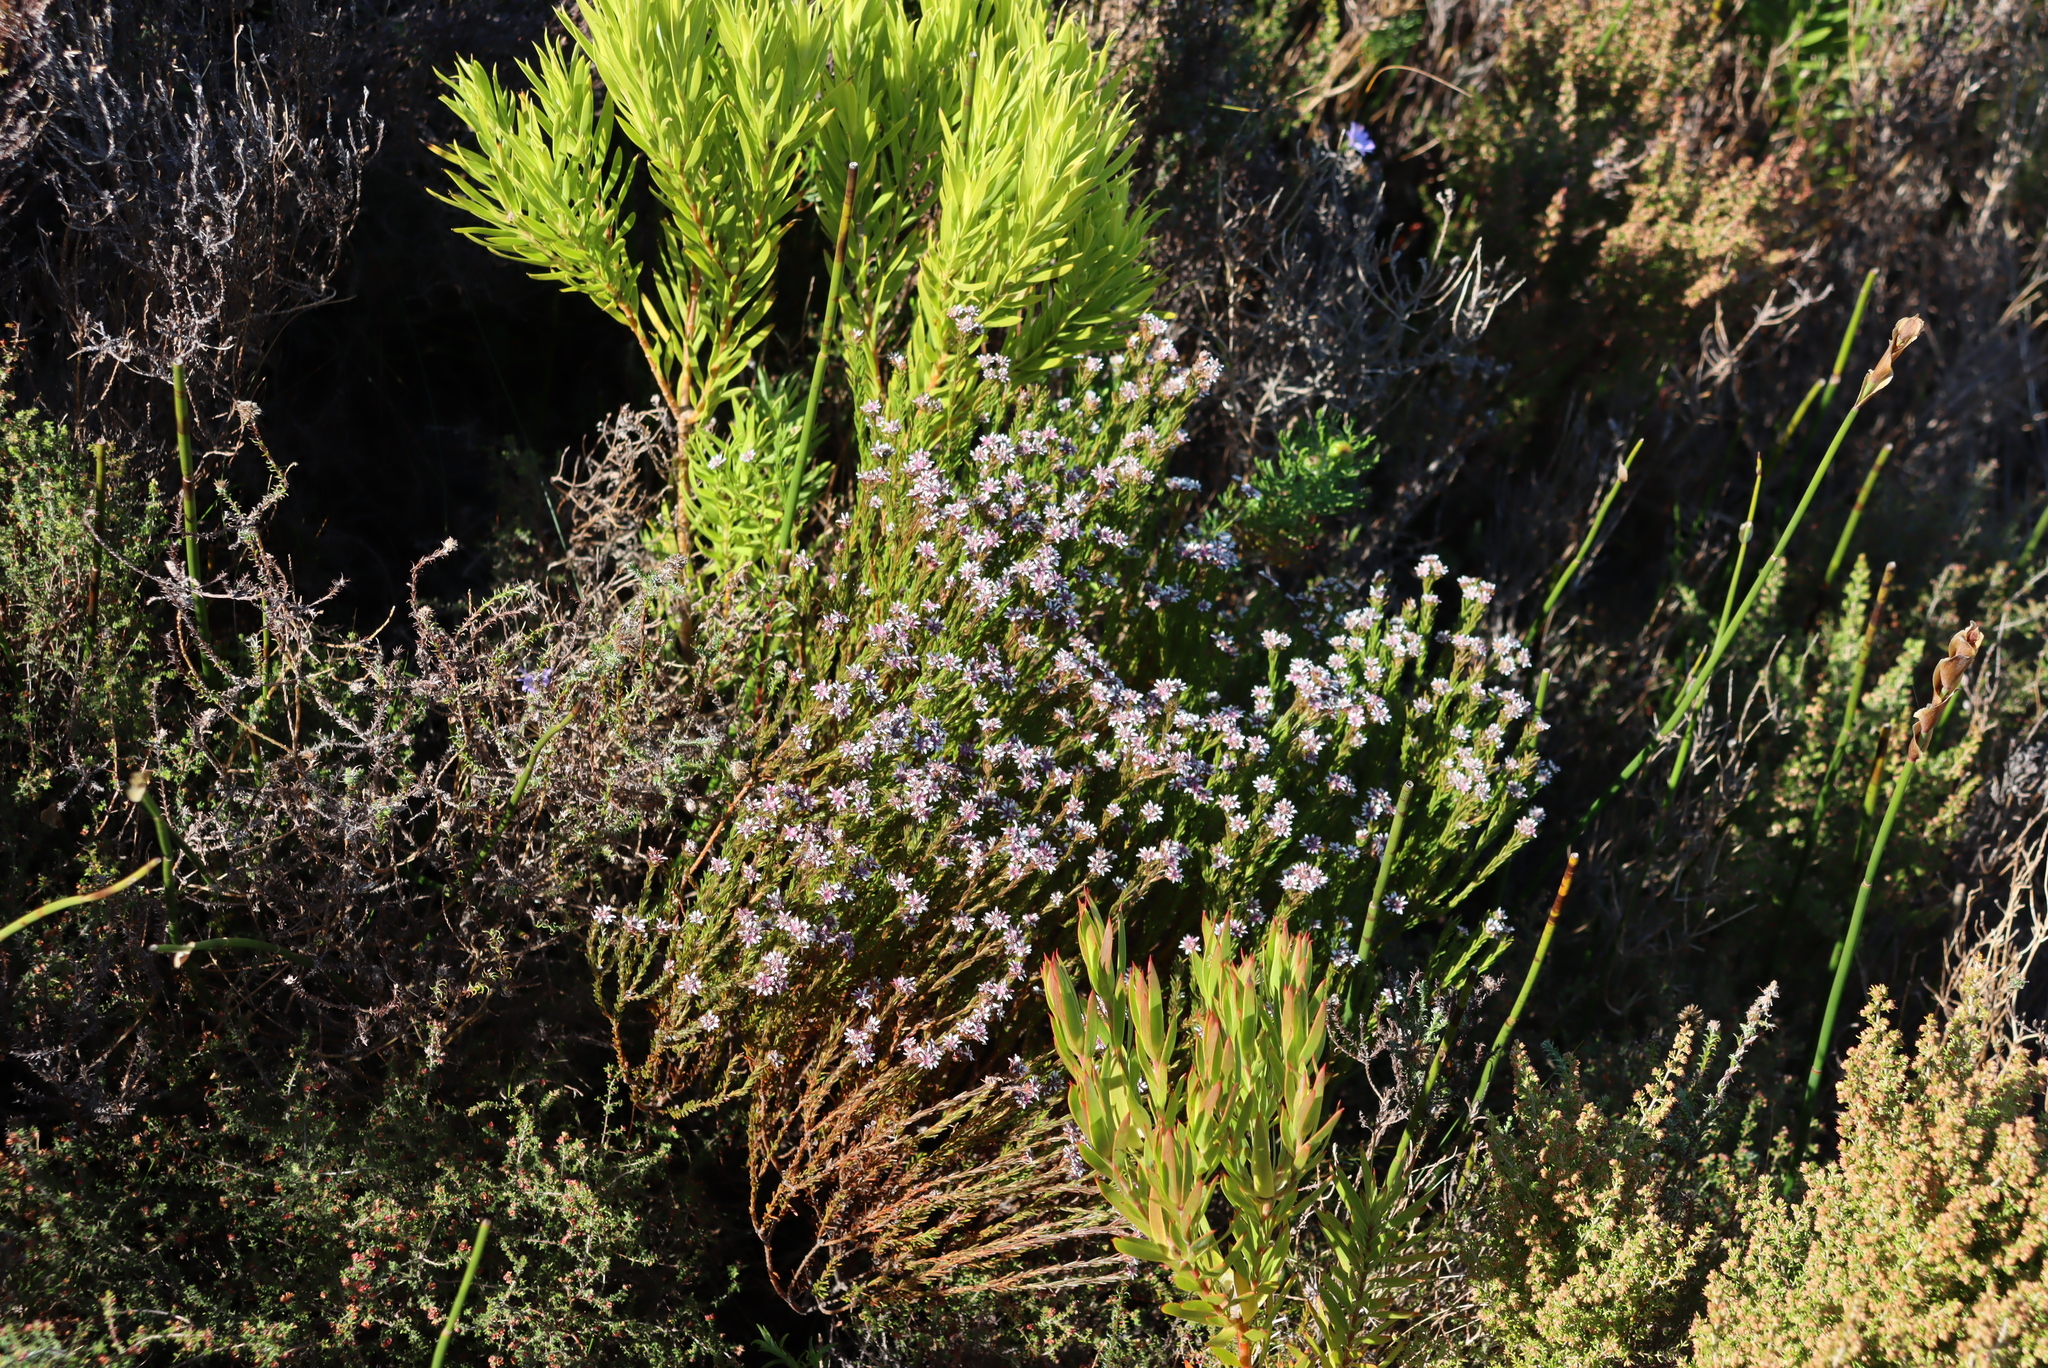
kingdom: Plantae
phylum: Tracheophyta
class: Magnoliopsida
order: Bruniales
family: Bruniaceae
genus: Staavia
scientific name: Staavia radiata
